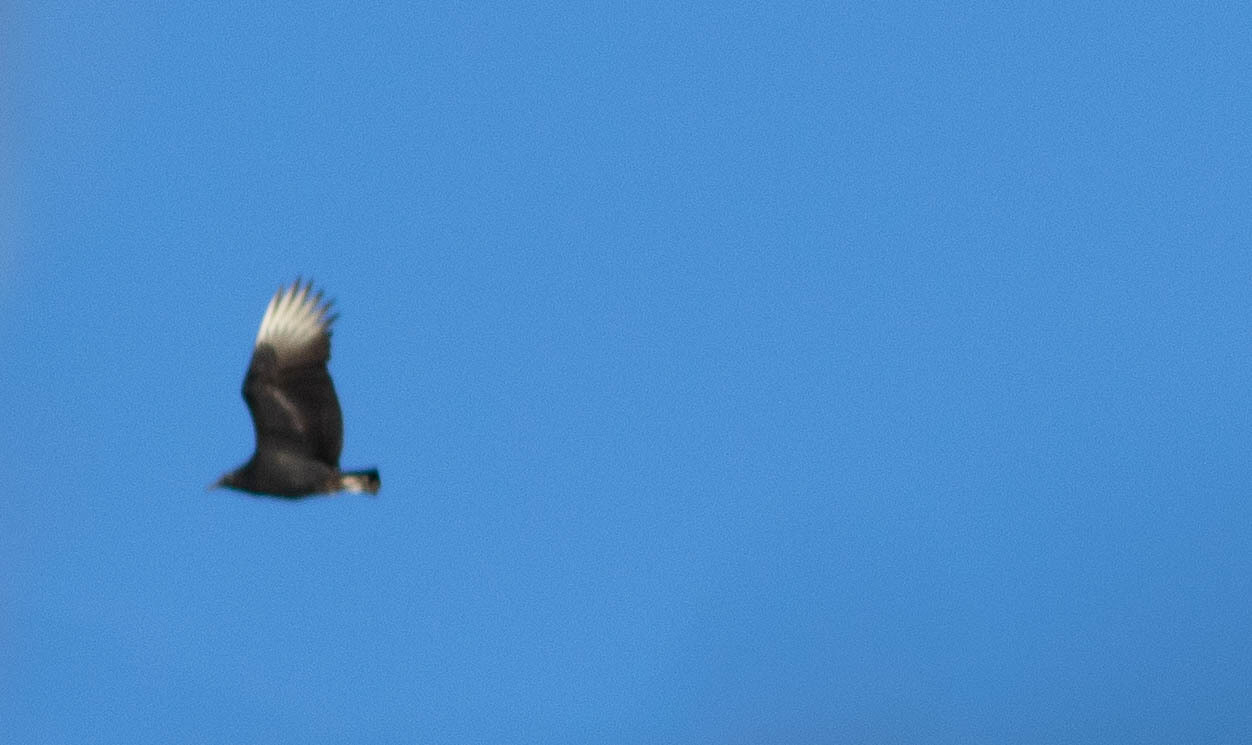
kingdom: Animalia
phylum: Chordata
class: Aves
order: Accipitriformes
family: Cathartidae
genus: Coragyps
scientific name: Coragyps atratus
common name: Black vulture
